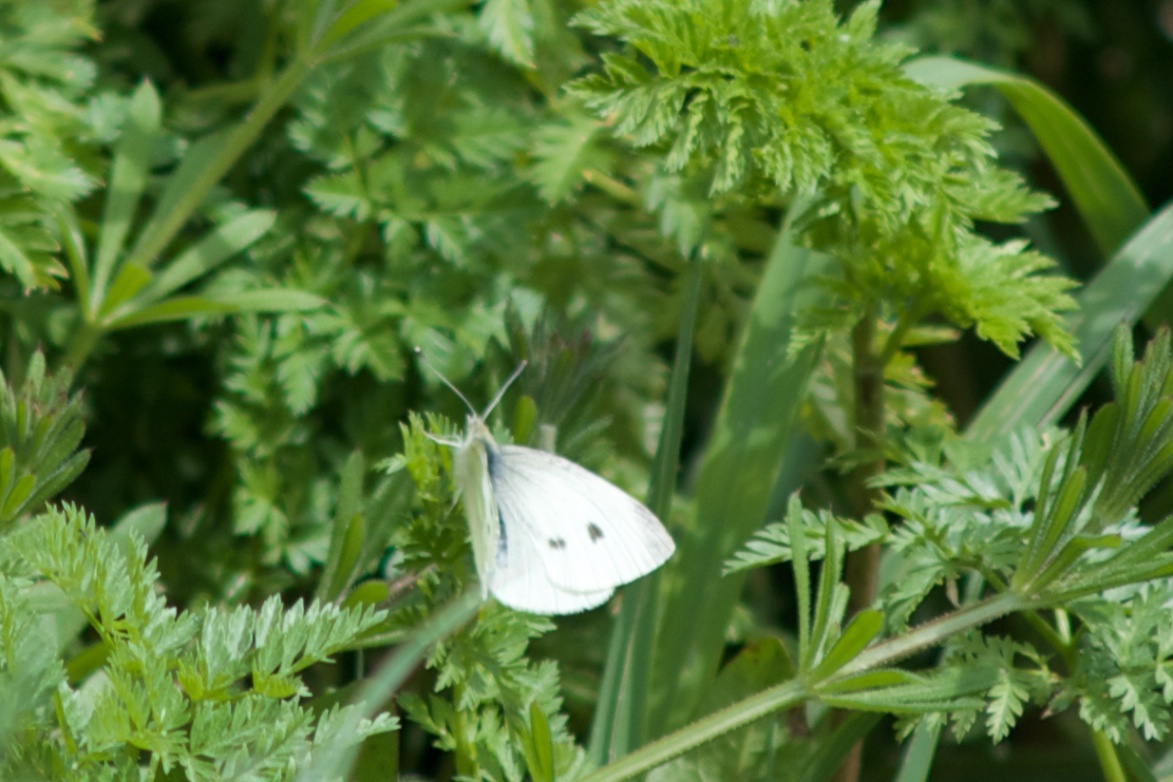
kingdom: Animalia
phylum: Arthropoda
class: Insecta
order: Lepidoptera
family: Pieridae
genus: Pieris
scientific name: Pieris rapae
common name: Small white
